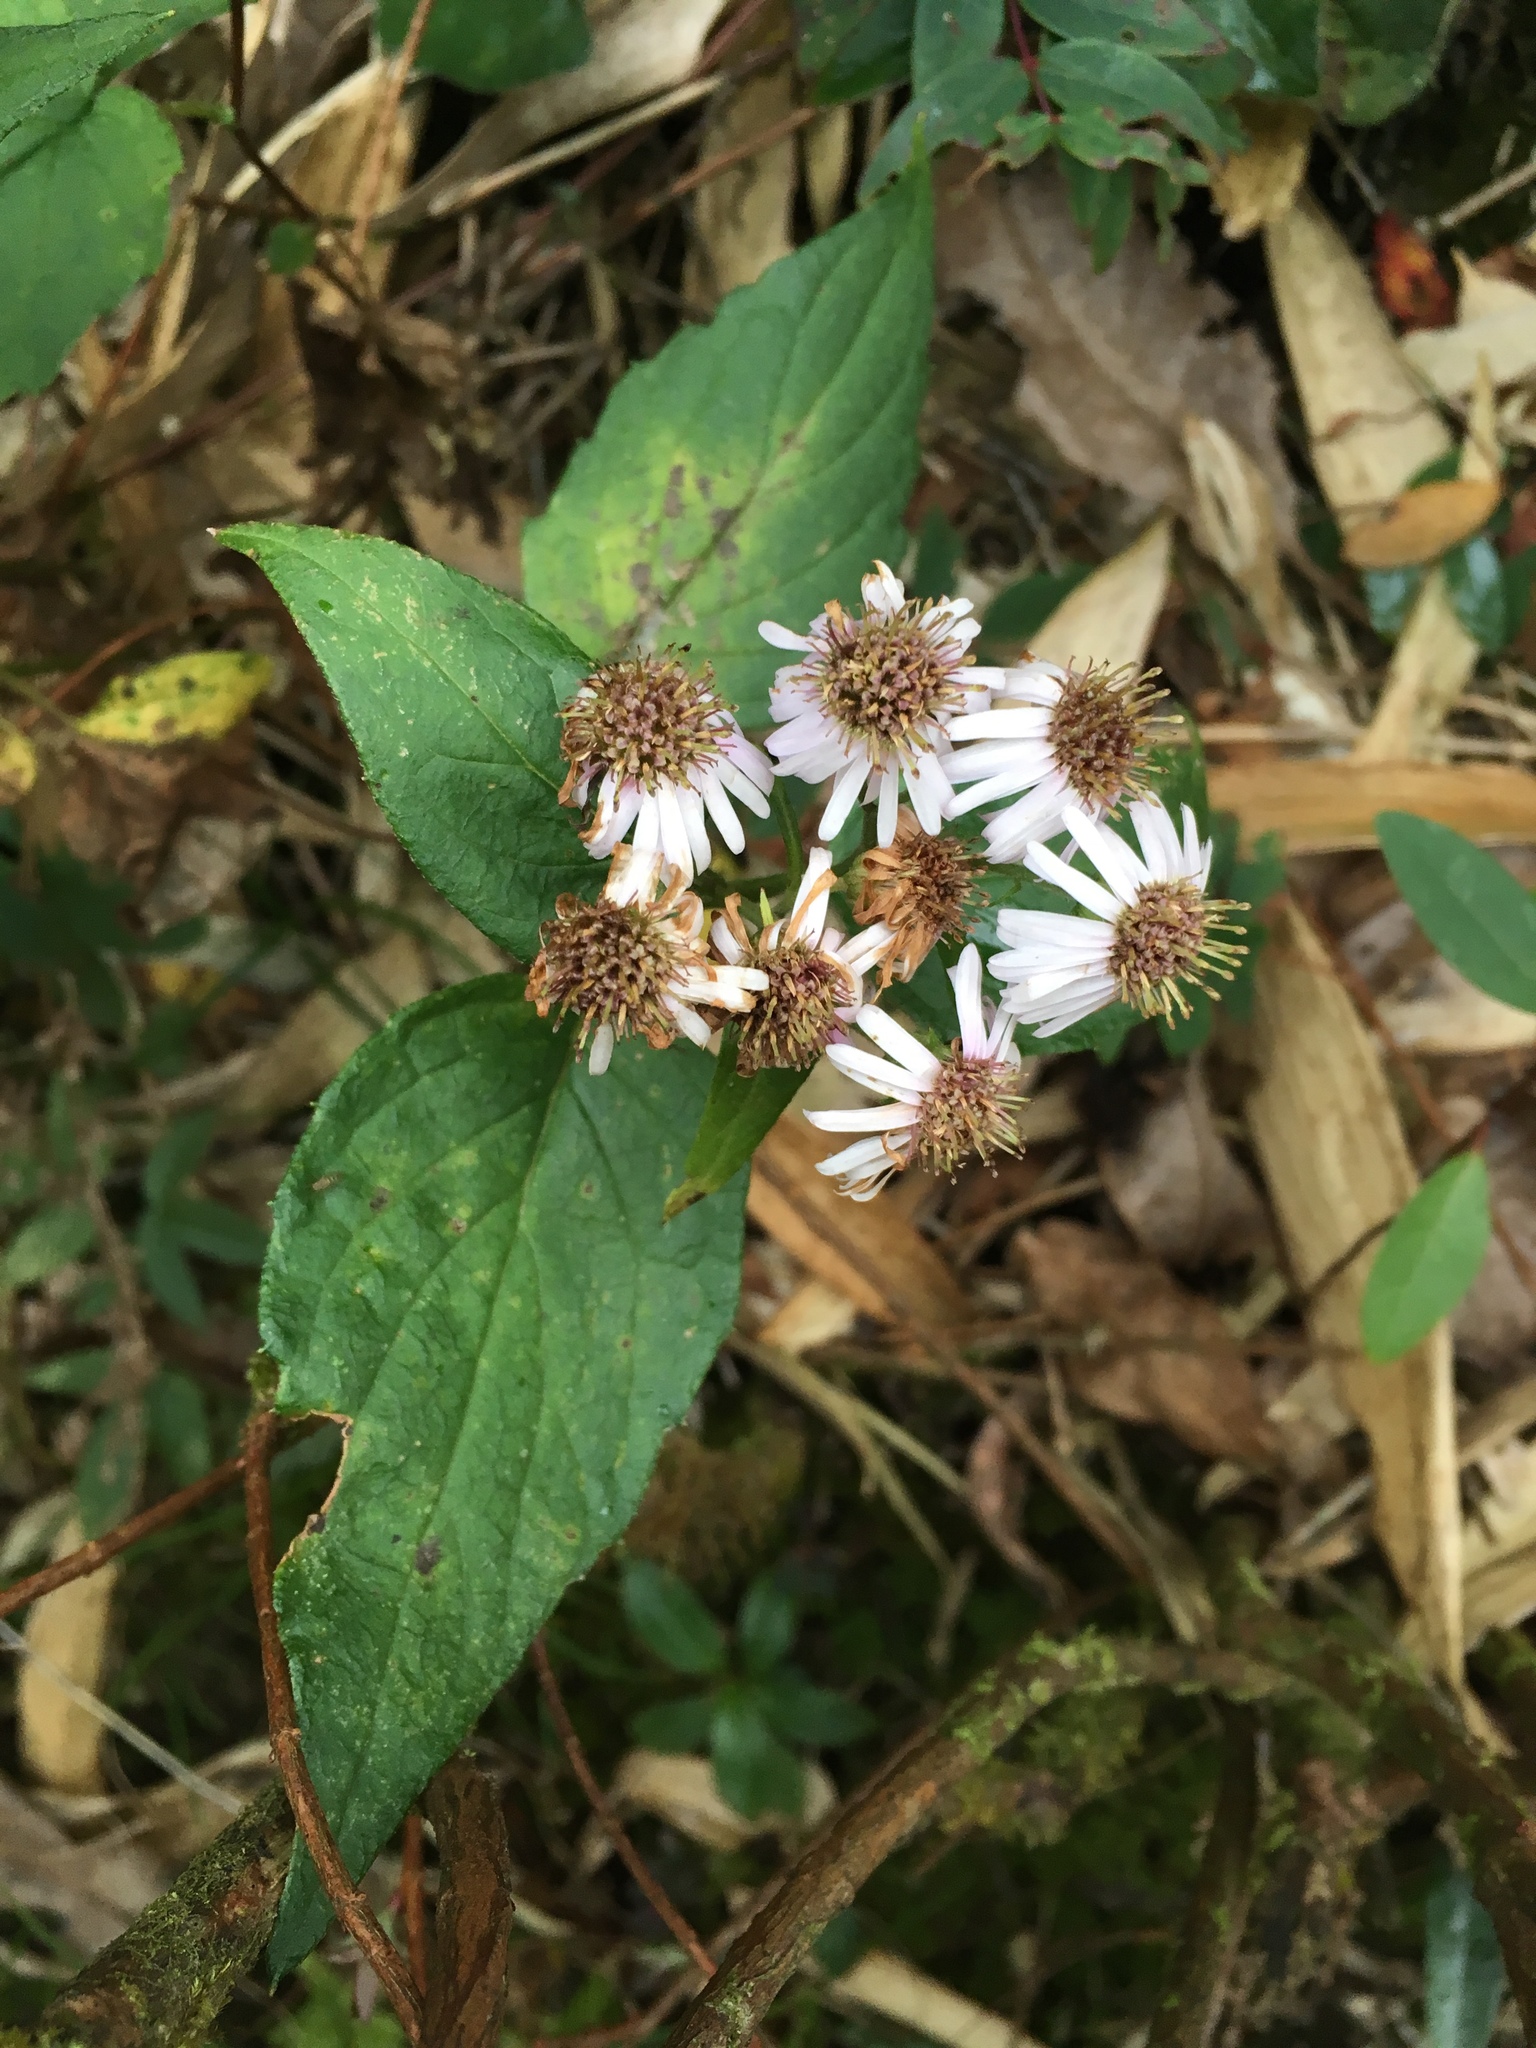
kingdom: Plantae
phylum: Tracheophyta
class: Magnoliopsida
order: Asterales
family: Asteraceae
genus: Aster
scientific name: Aster ageratoides
